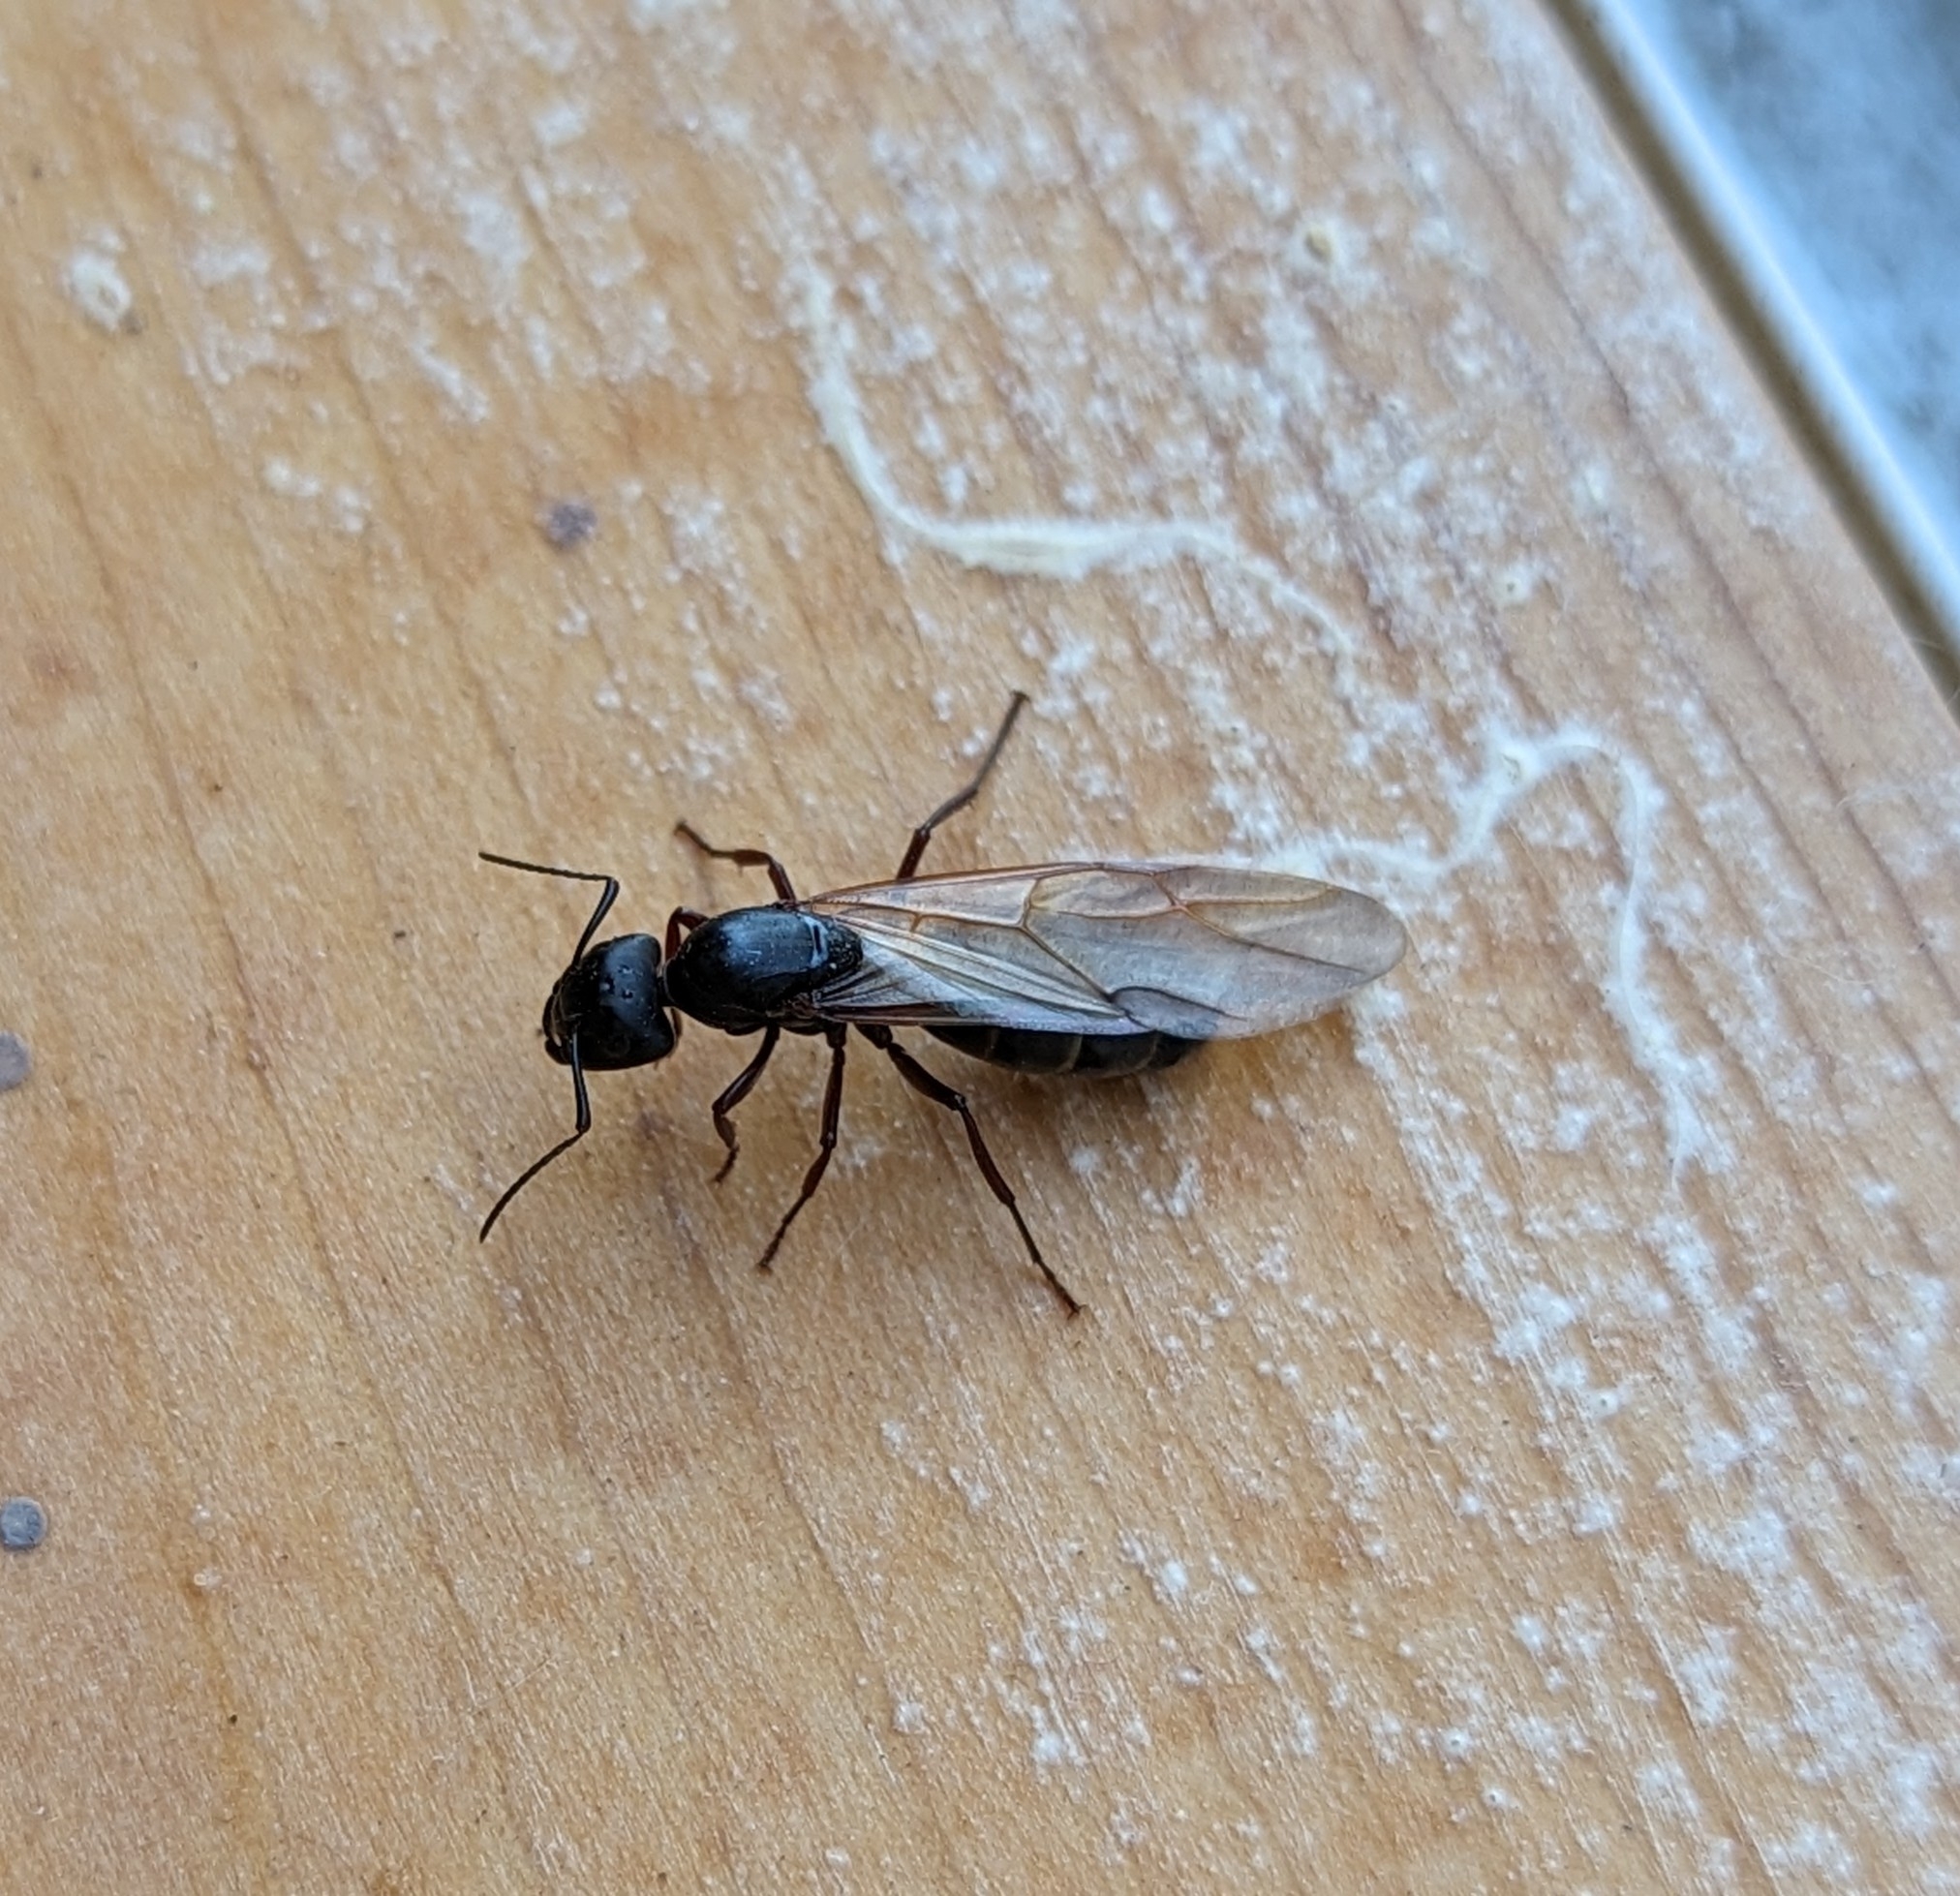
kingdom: Animalia
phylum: Arthropoda
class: Insecta
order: Hymenoptera
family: Formicidae
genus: Camponotus
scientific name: Camponotus modoc
